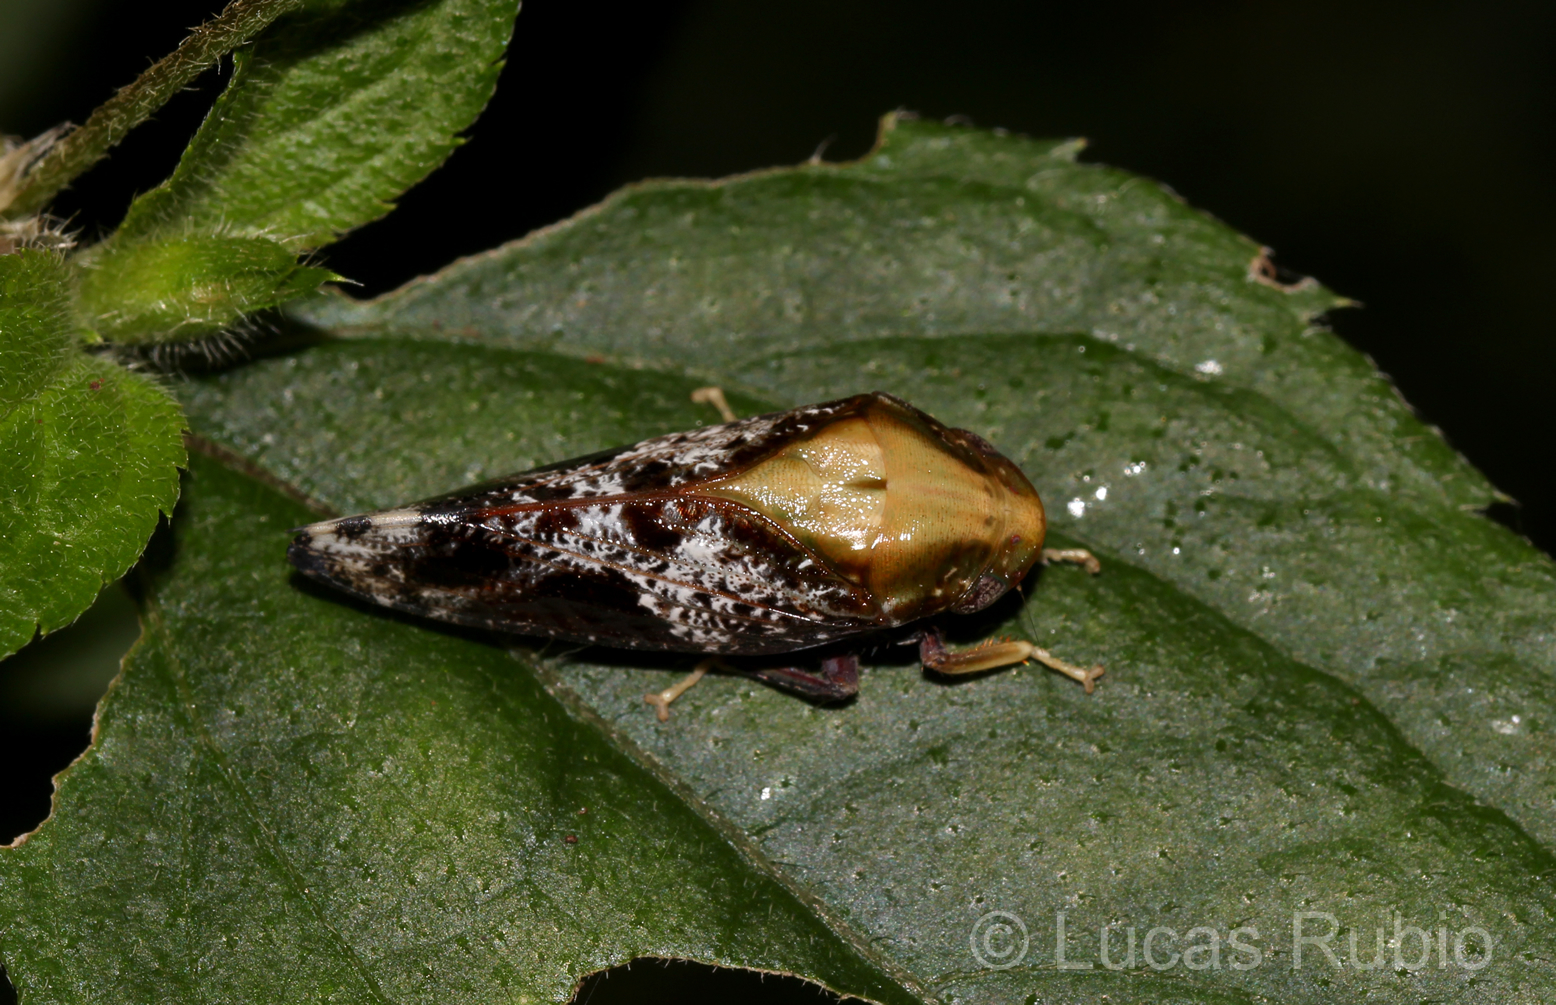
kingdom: Animalia
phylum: Arthropoda
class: Insecta
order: Hemiptera
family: Cicadellidae
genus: Nancyana
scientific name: Nancyana bordoni
